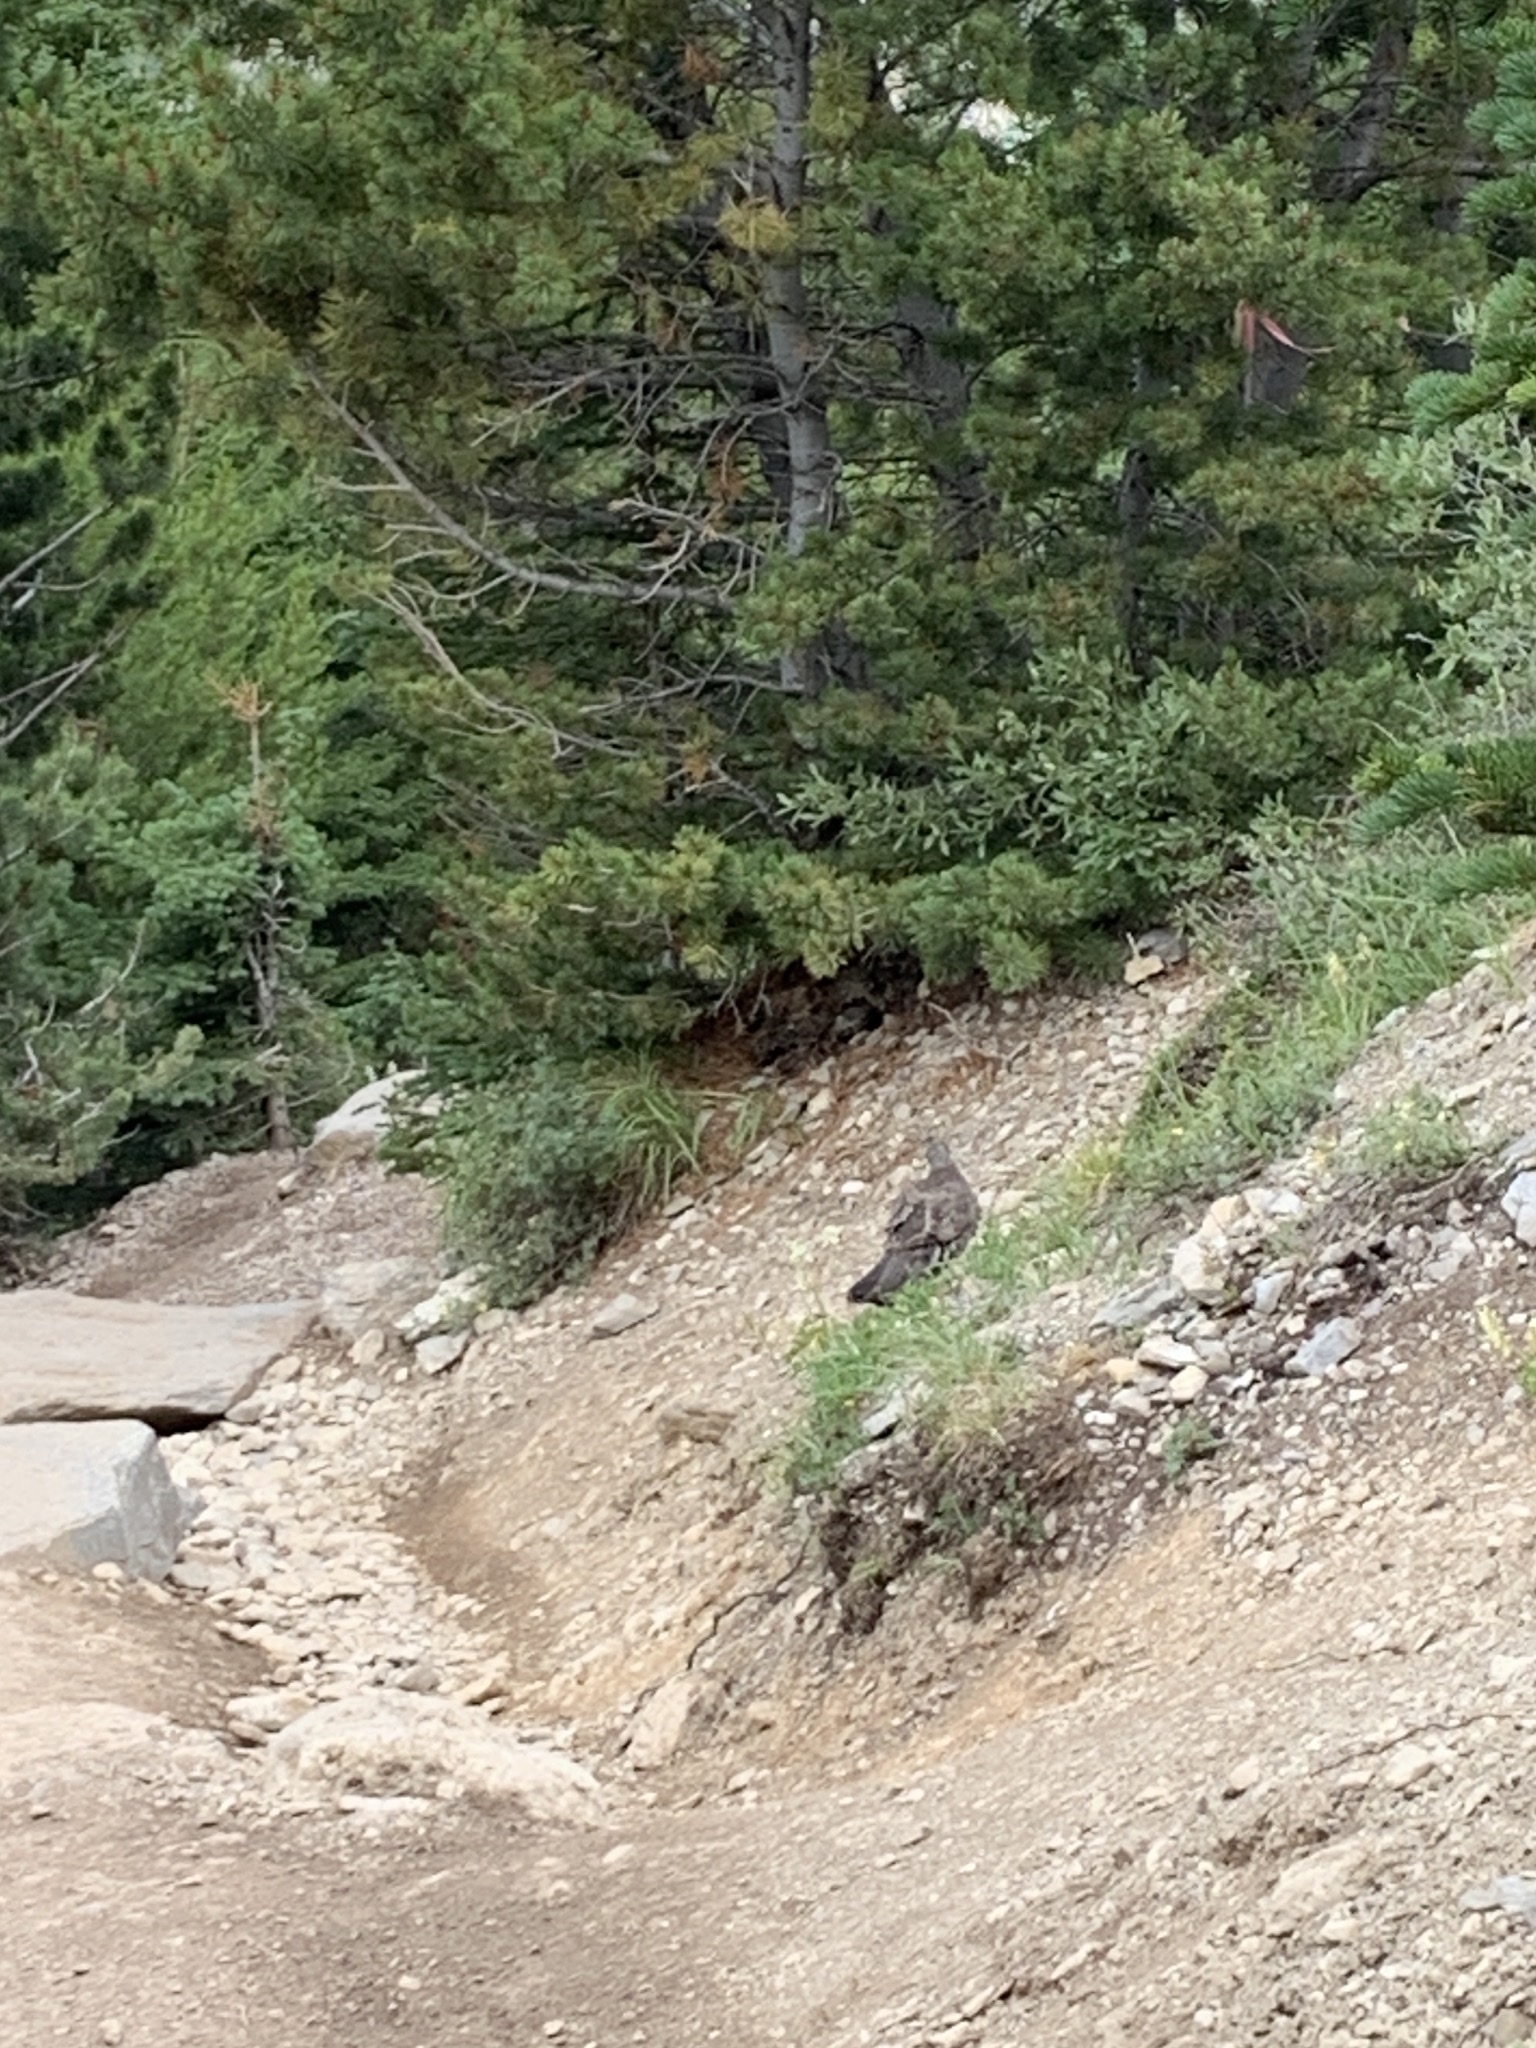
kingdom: Animalia
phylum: Chordata
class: Aves
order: Galliformes
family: Phasianidae
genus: Dendragapus
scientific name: Dendragapus obscurus
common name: Dusky grouse
